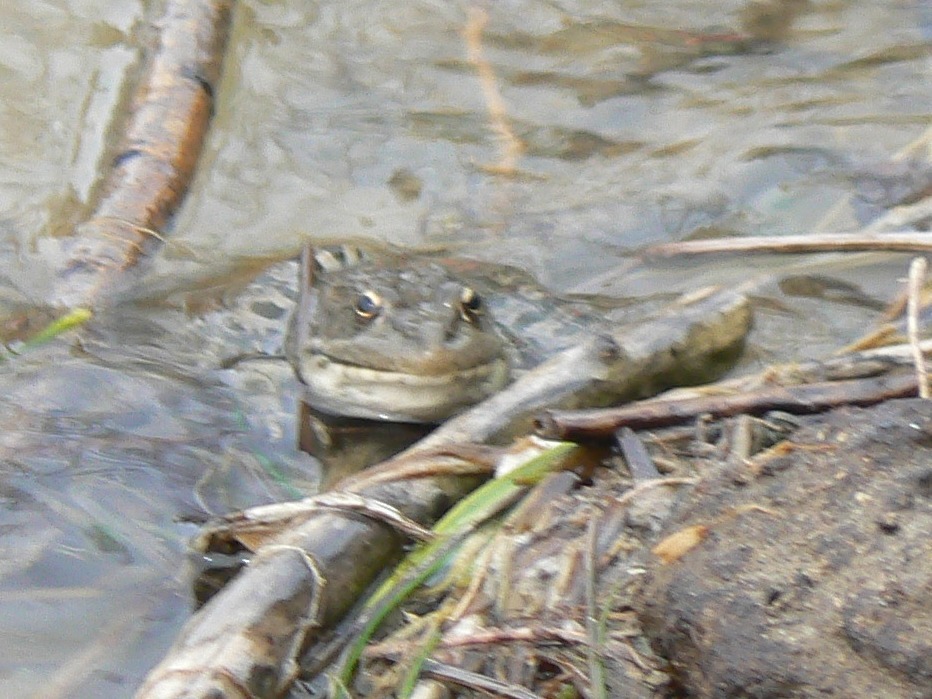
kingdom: Animalia
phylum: Chordata
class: Amphibia
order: Anura
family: Ranidae
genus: Pelophylax
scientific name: Pelophylax ridibundus
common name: Marsh frog
